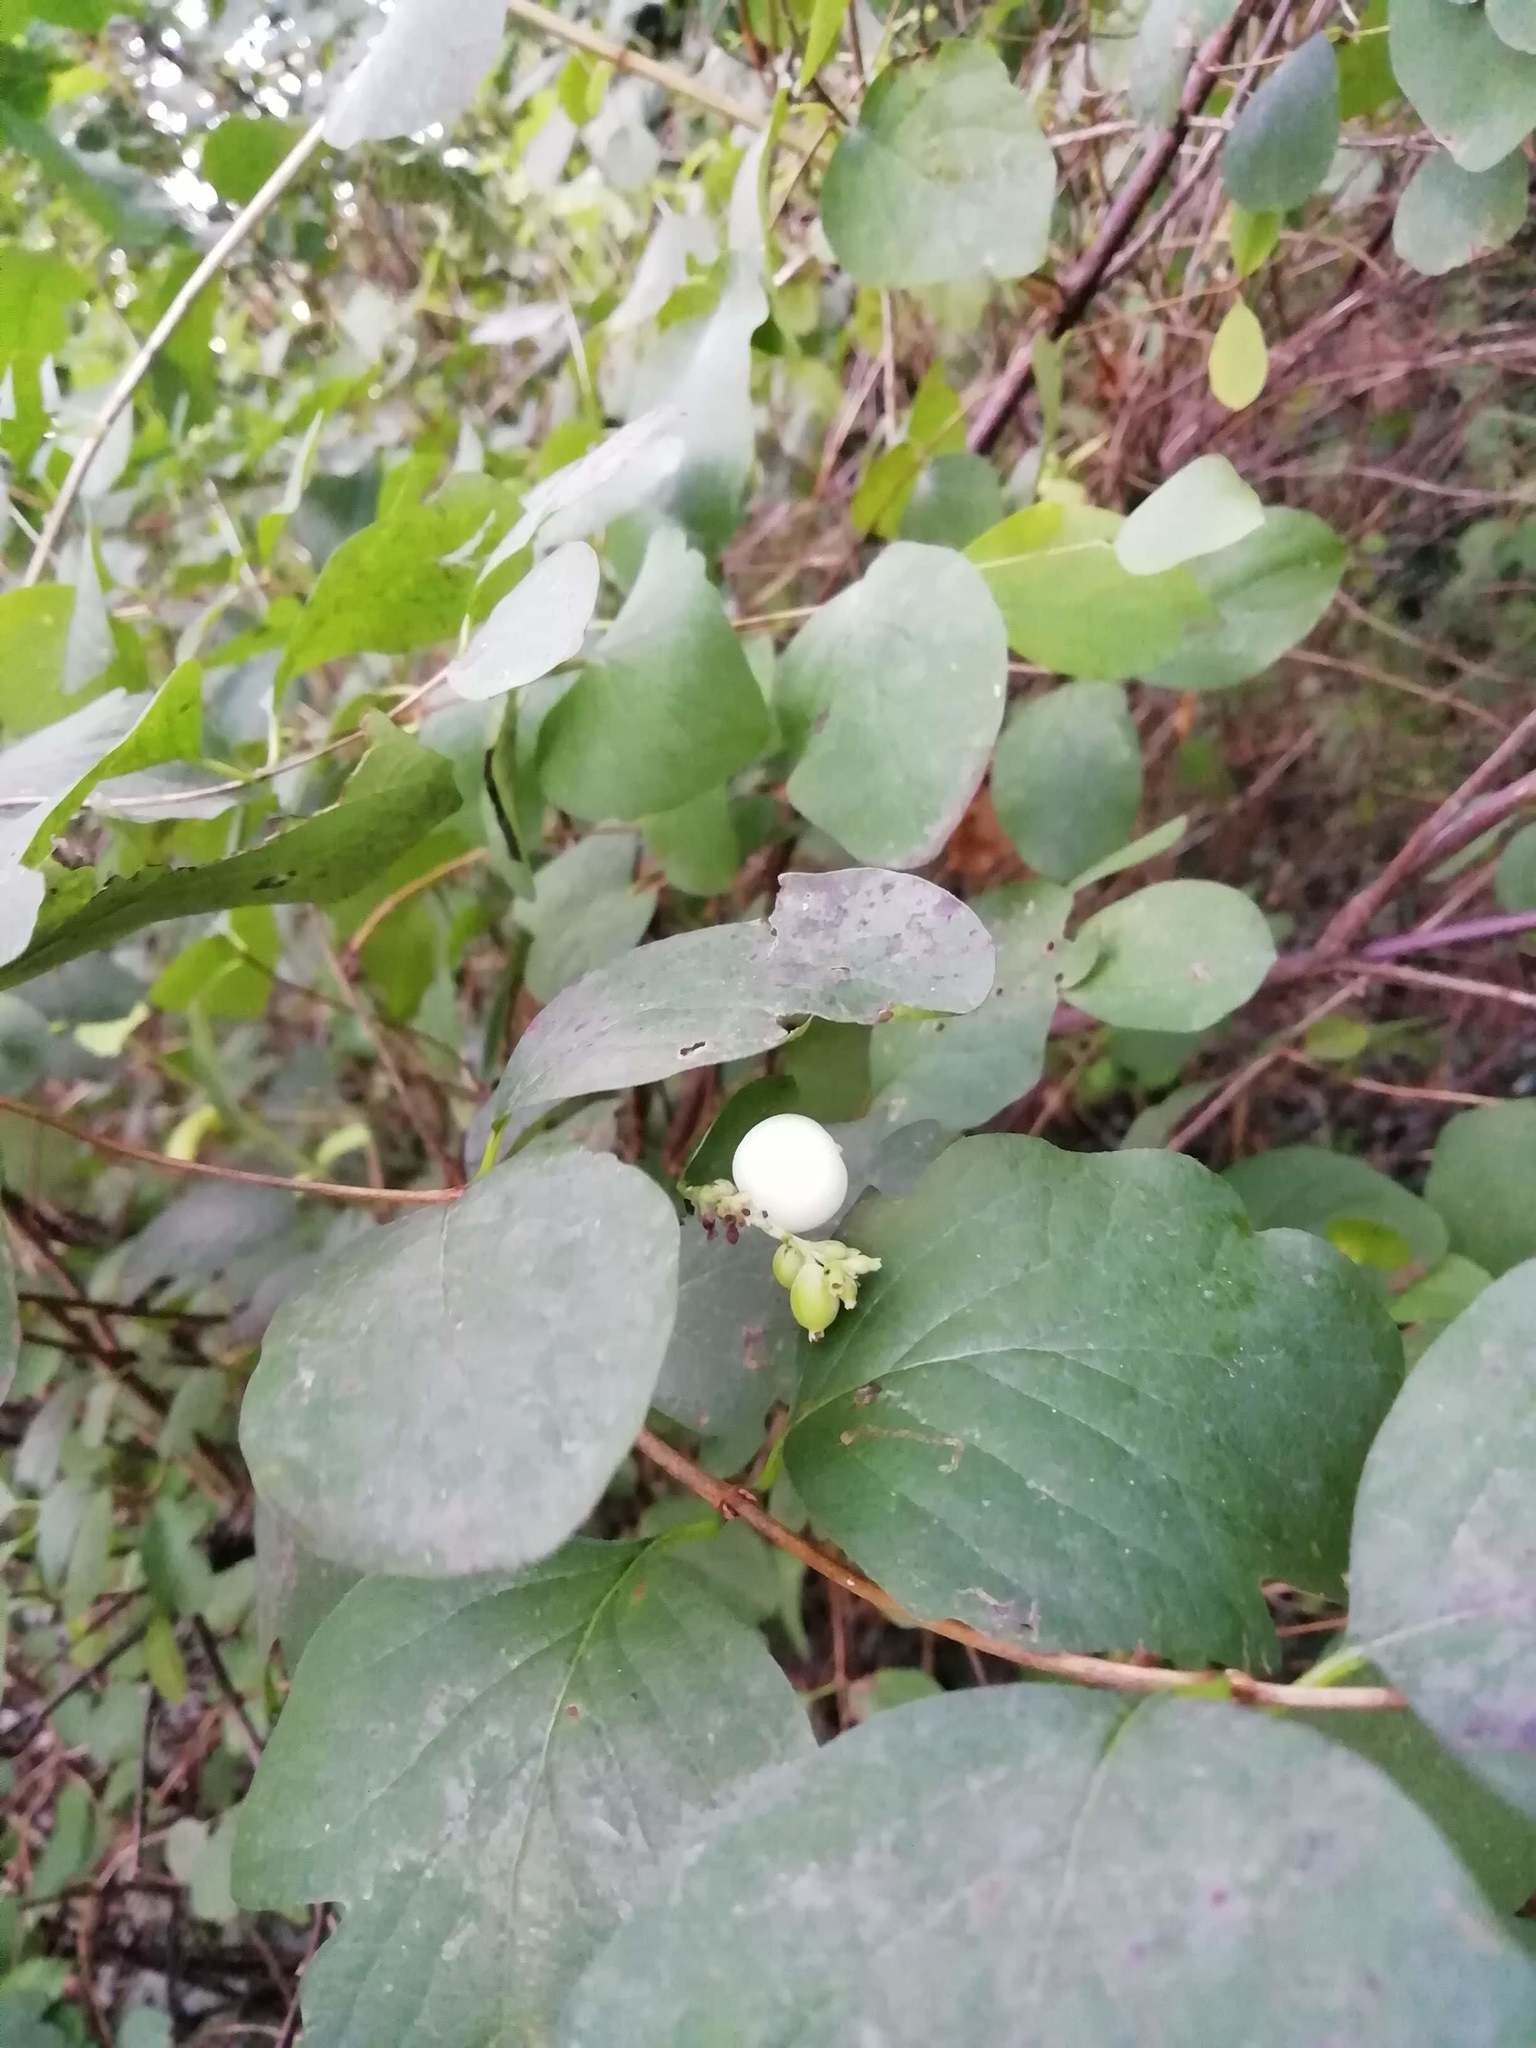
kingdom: Plantae
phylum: Tracheophyta
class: Magnoliopsida
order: Dipsacales
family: Caprifoliaceae
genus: Symphoricarpos
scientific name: Symphoricarpos albus
